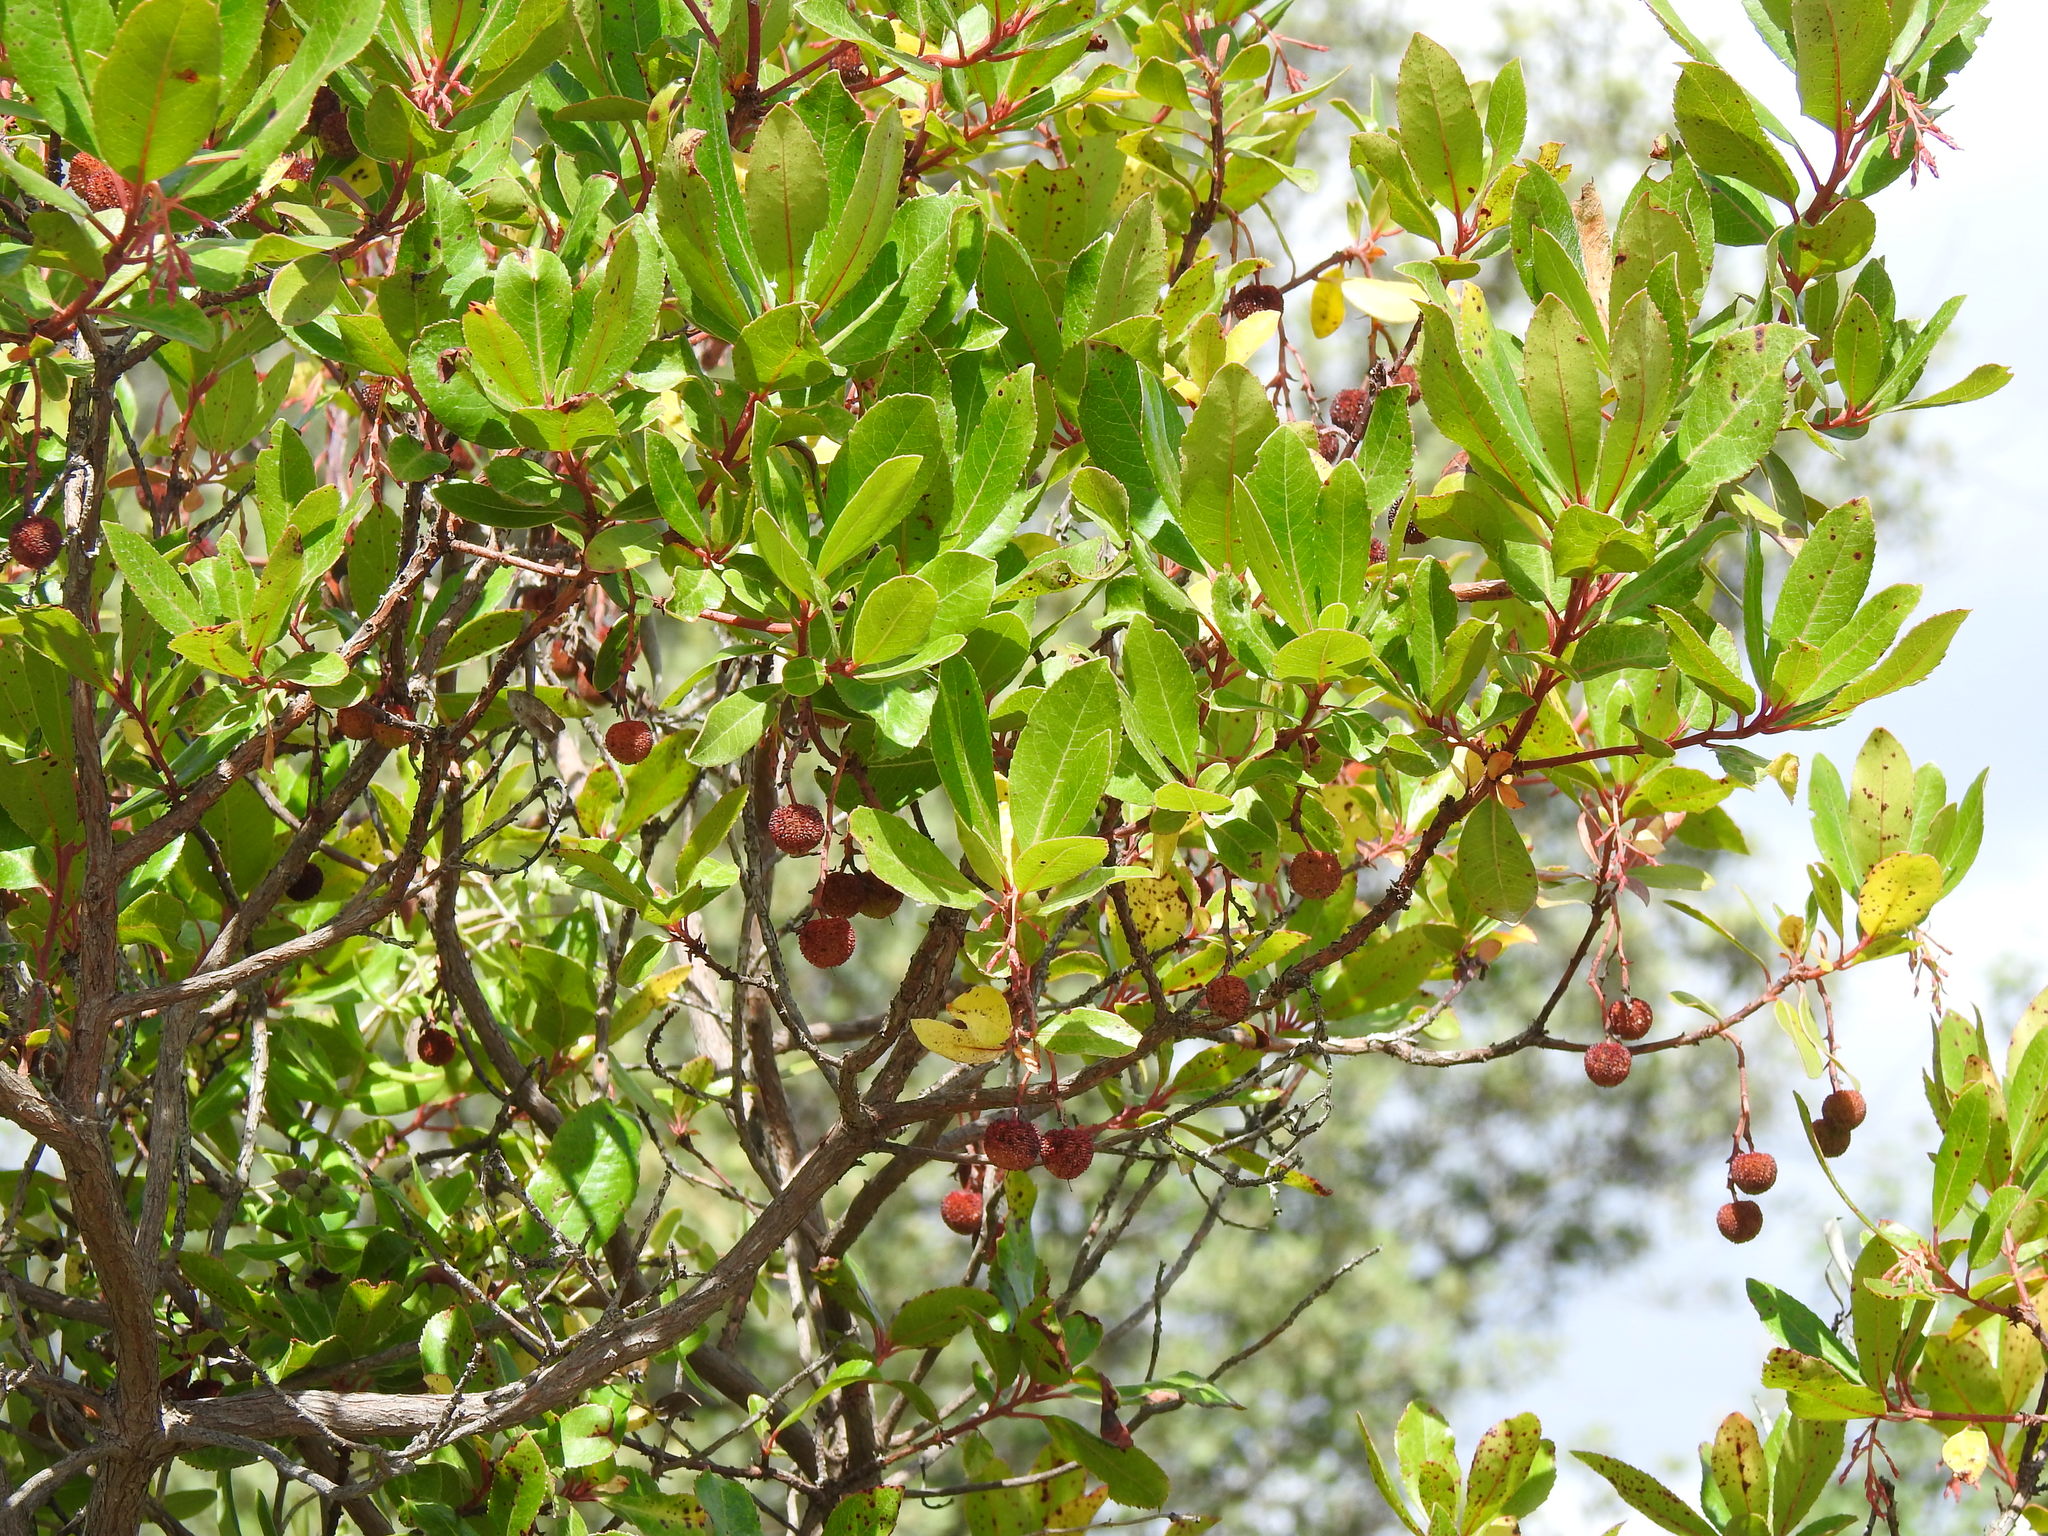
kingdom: Plantae
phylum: Tracheophyta
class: Magnoliopsida
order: Ericales
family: Ericaceae
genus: Arbutus
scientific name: Arbutus unedo
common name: Strawberry-tree
